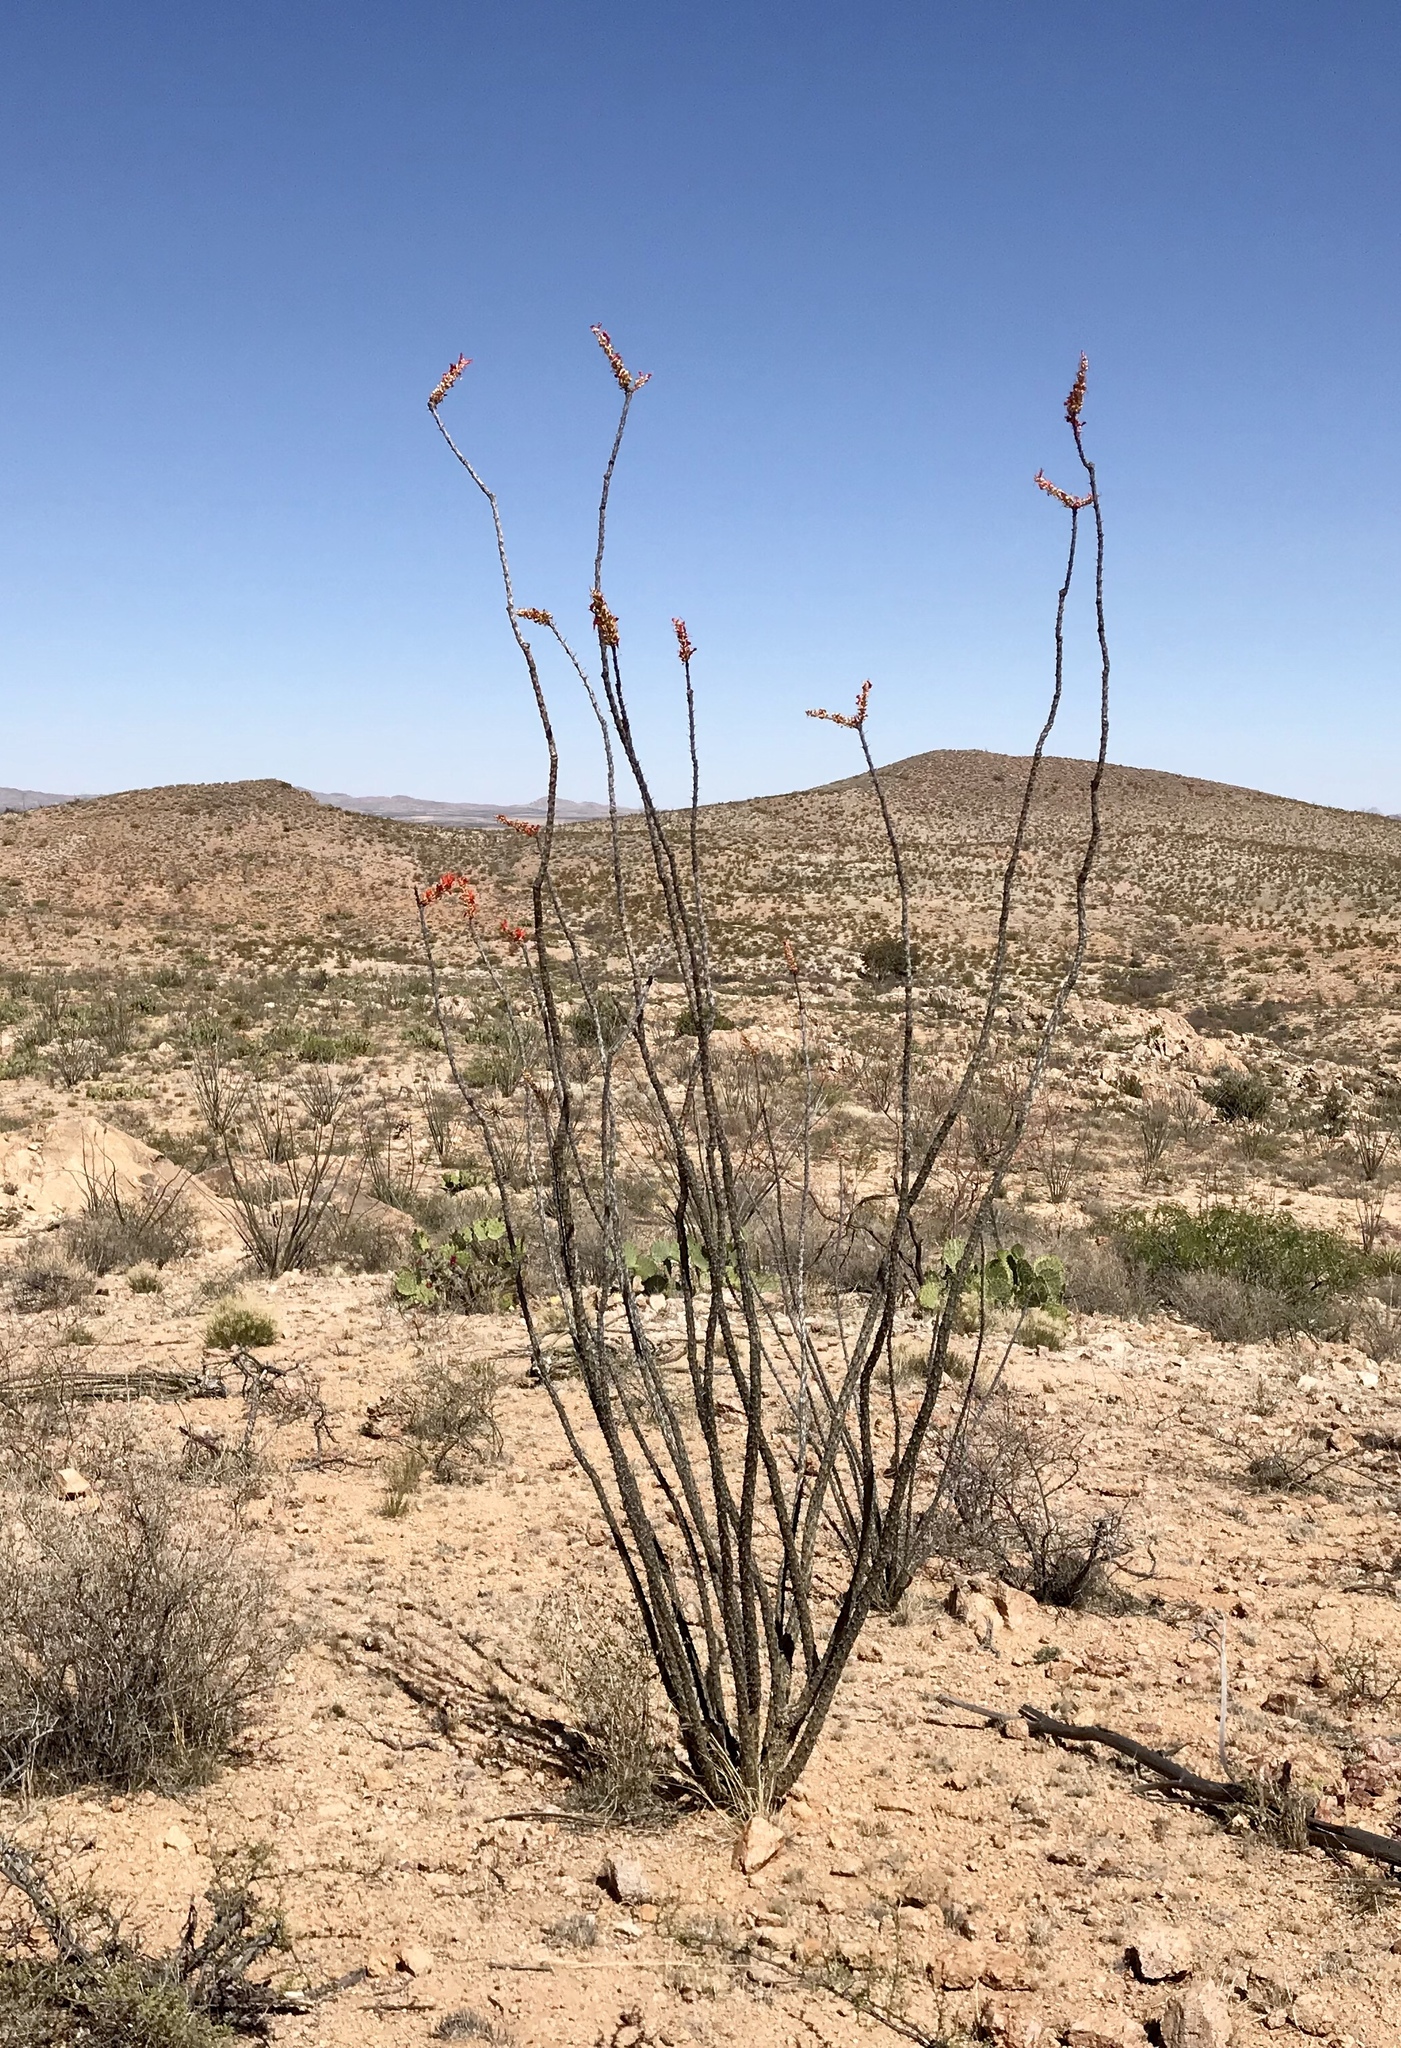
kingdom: Plantae
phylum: Tracheophyta
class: Magnoliopsida
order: Ericales
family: Fouquieriaceae
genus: Fouquieria
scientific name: Fouquieria splendens
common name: Vine-cactus
